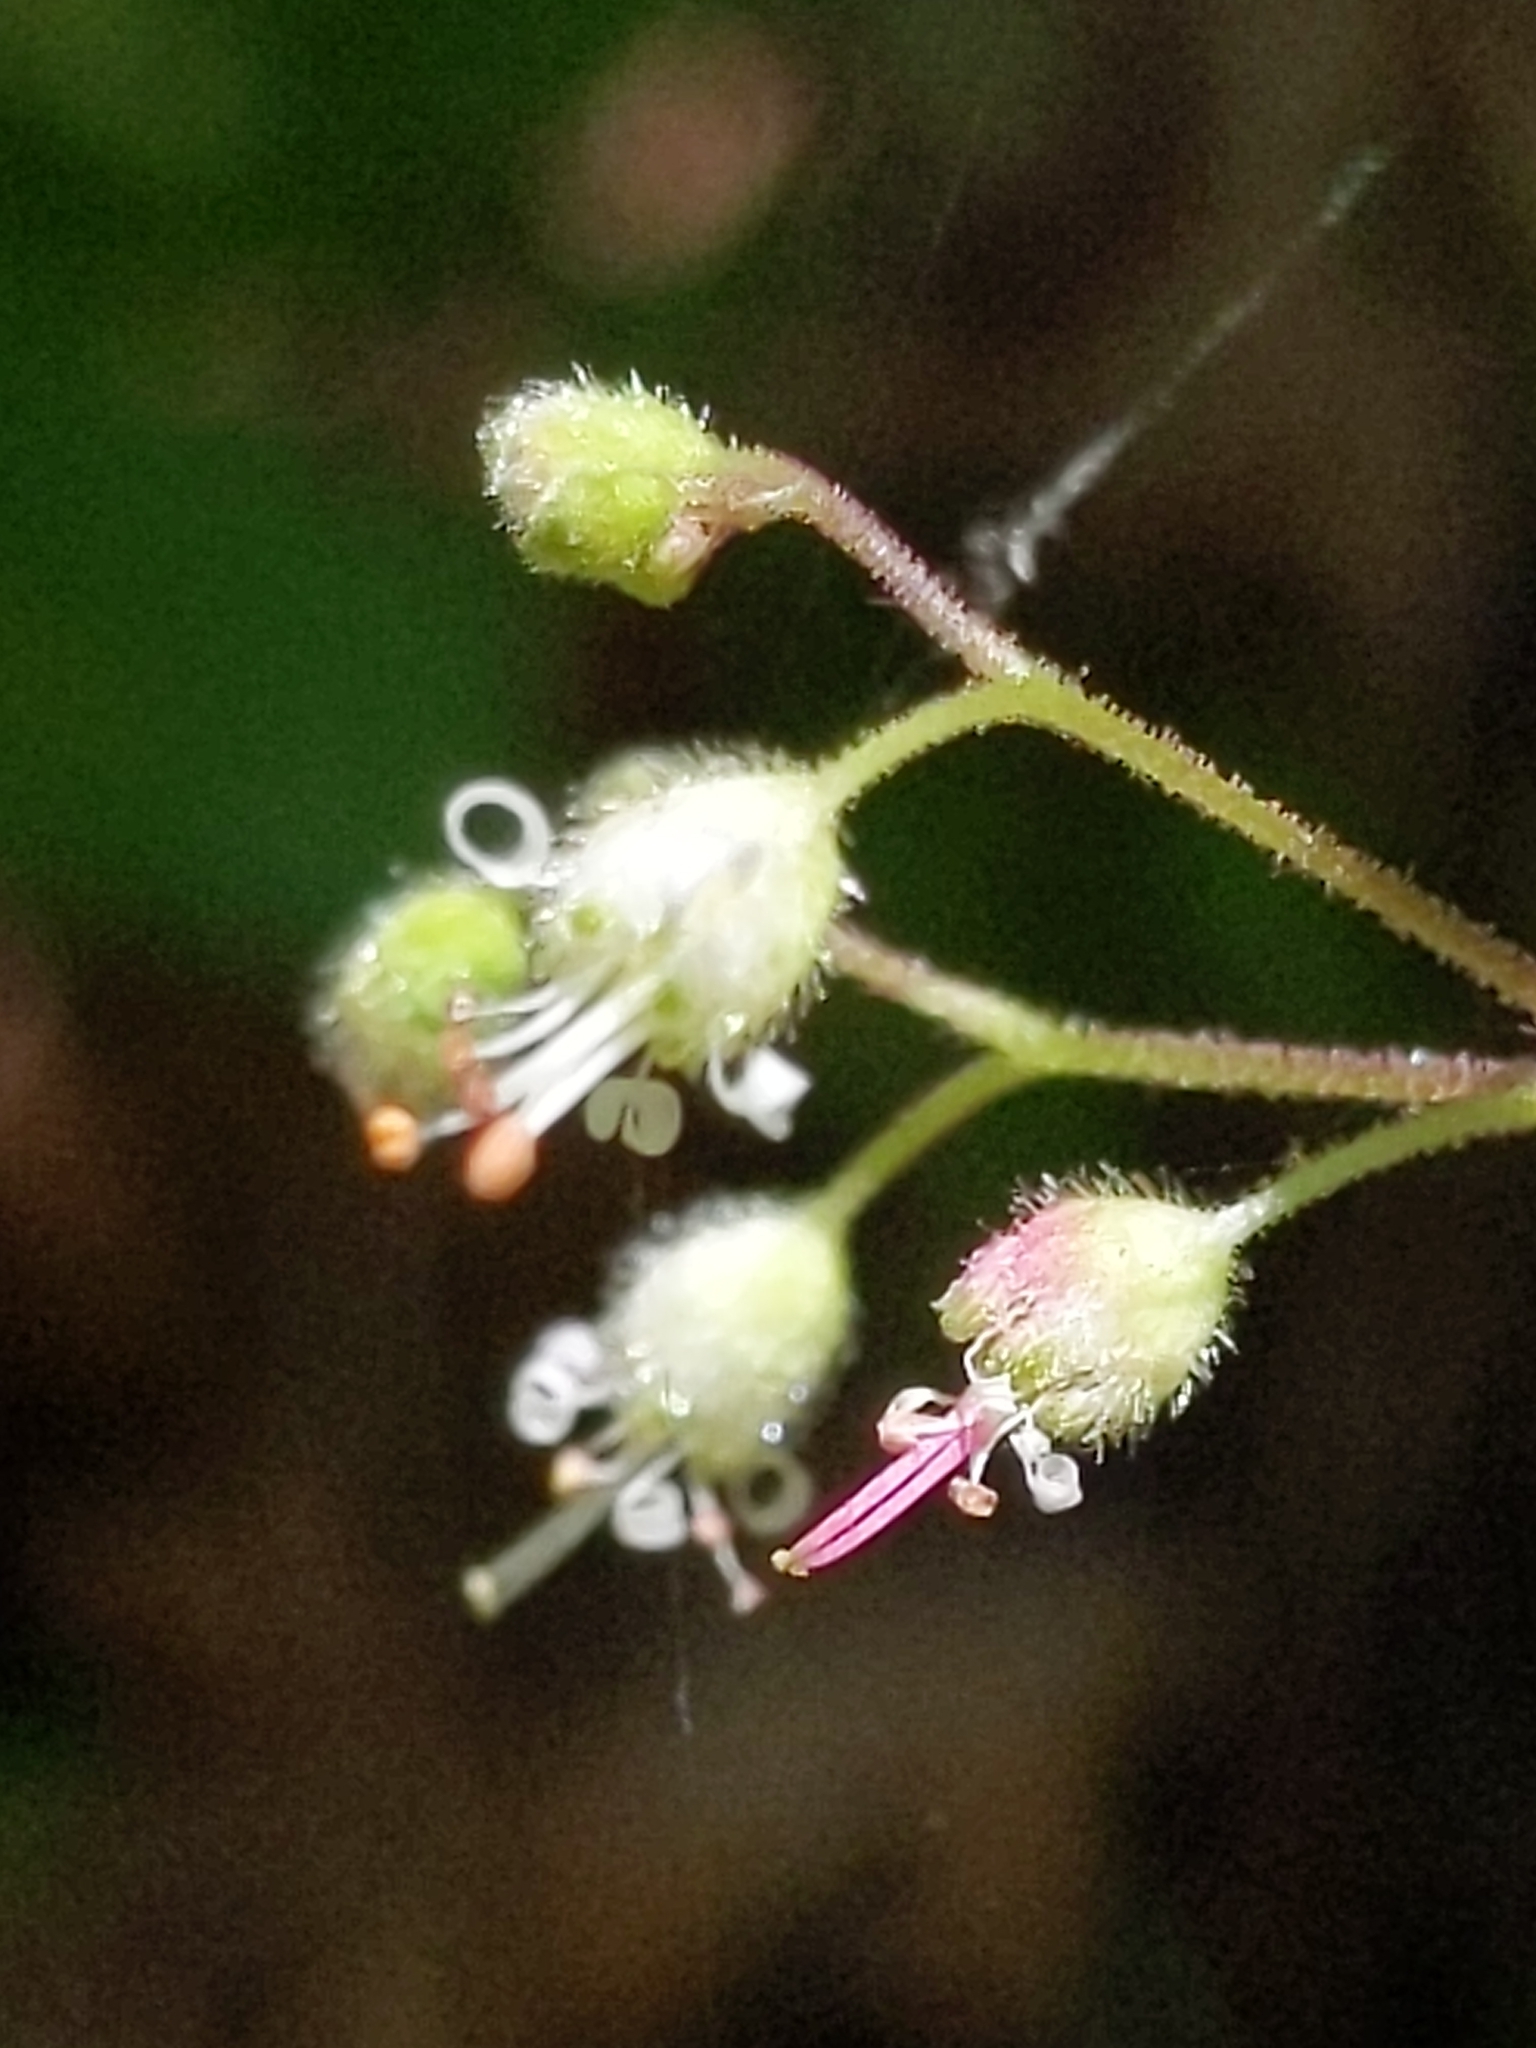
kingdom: Plantae
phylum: Tracheophyta
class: Magnoliopsida
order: Saxifragales
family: Saxifragaceae
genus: Heuchera
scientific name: Heuchera micrantha
